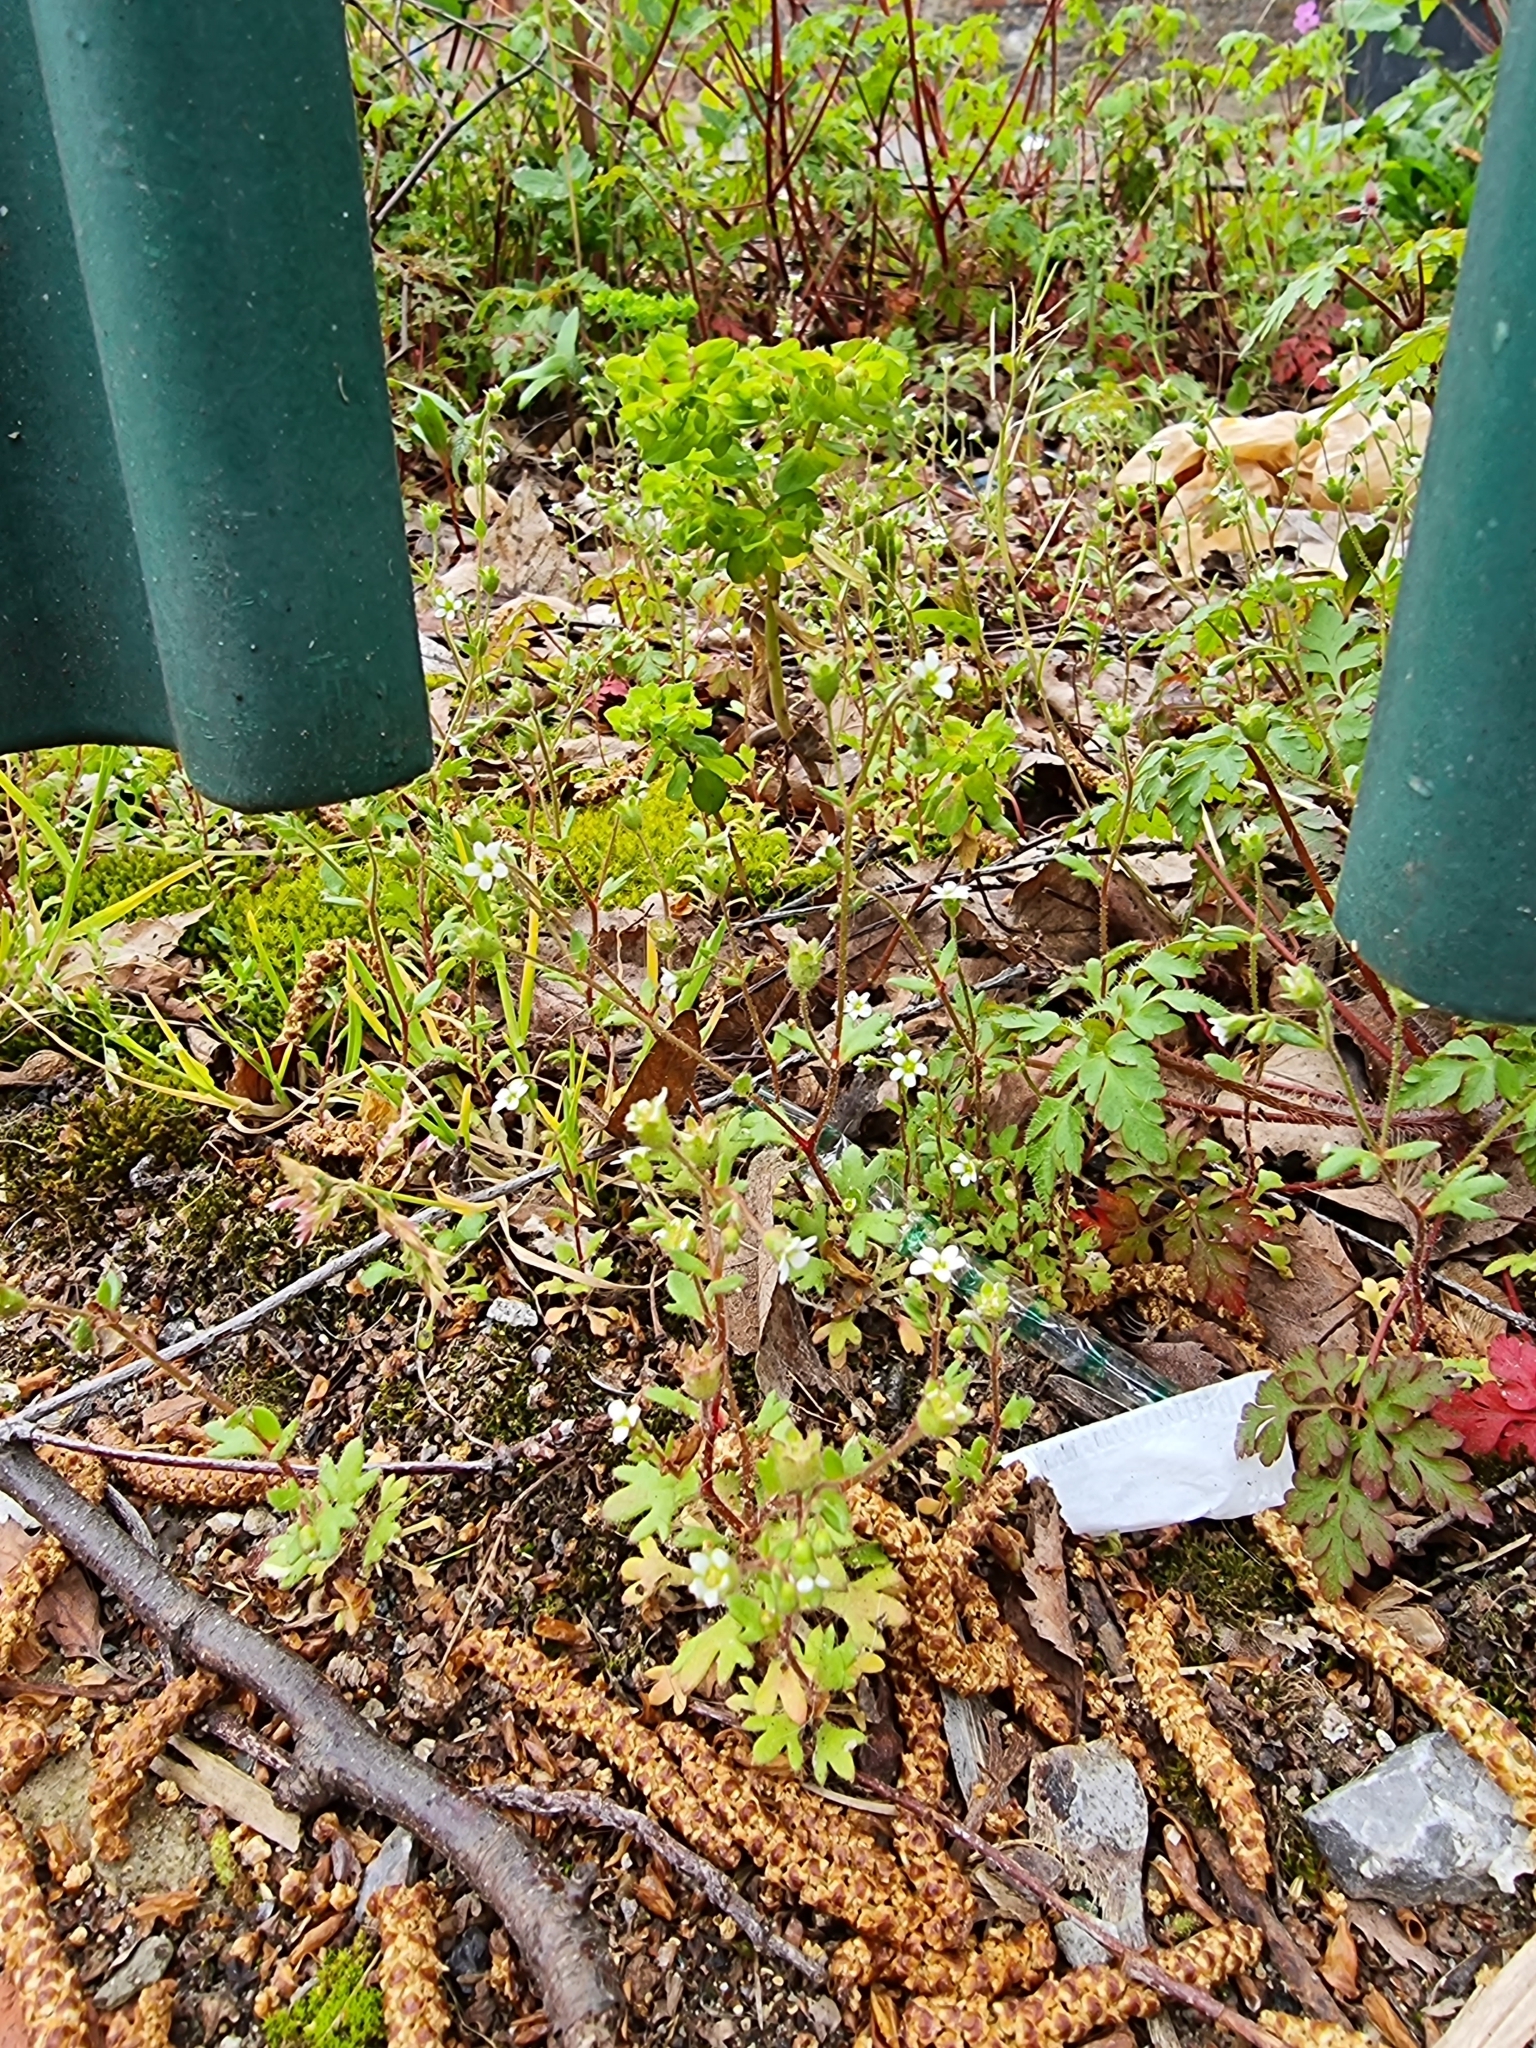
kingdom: Plantae
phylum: Tracheophyta
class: Magnoliopsida
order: Saxifragales
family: Saxifragaceae
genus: Saxifraga
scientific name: Saxifraga tridactylites
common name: Rue-leaved saxifrage
